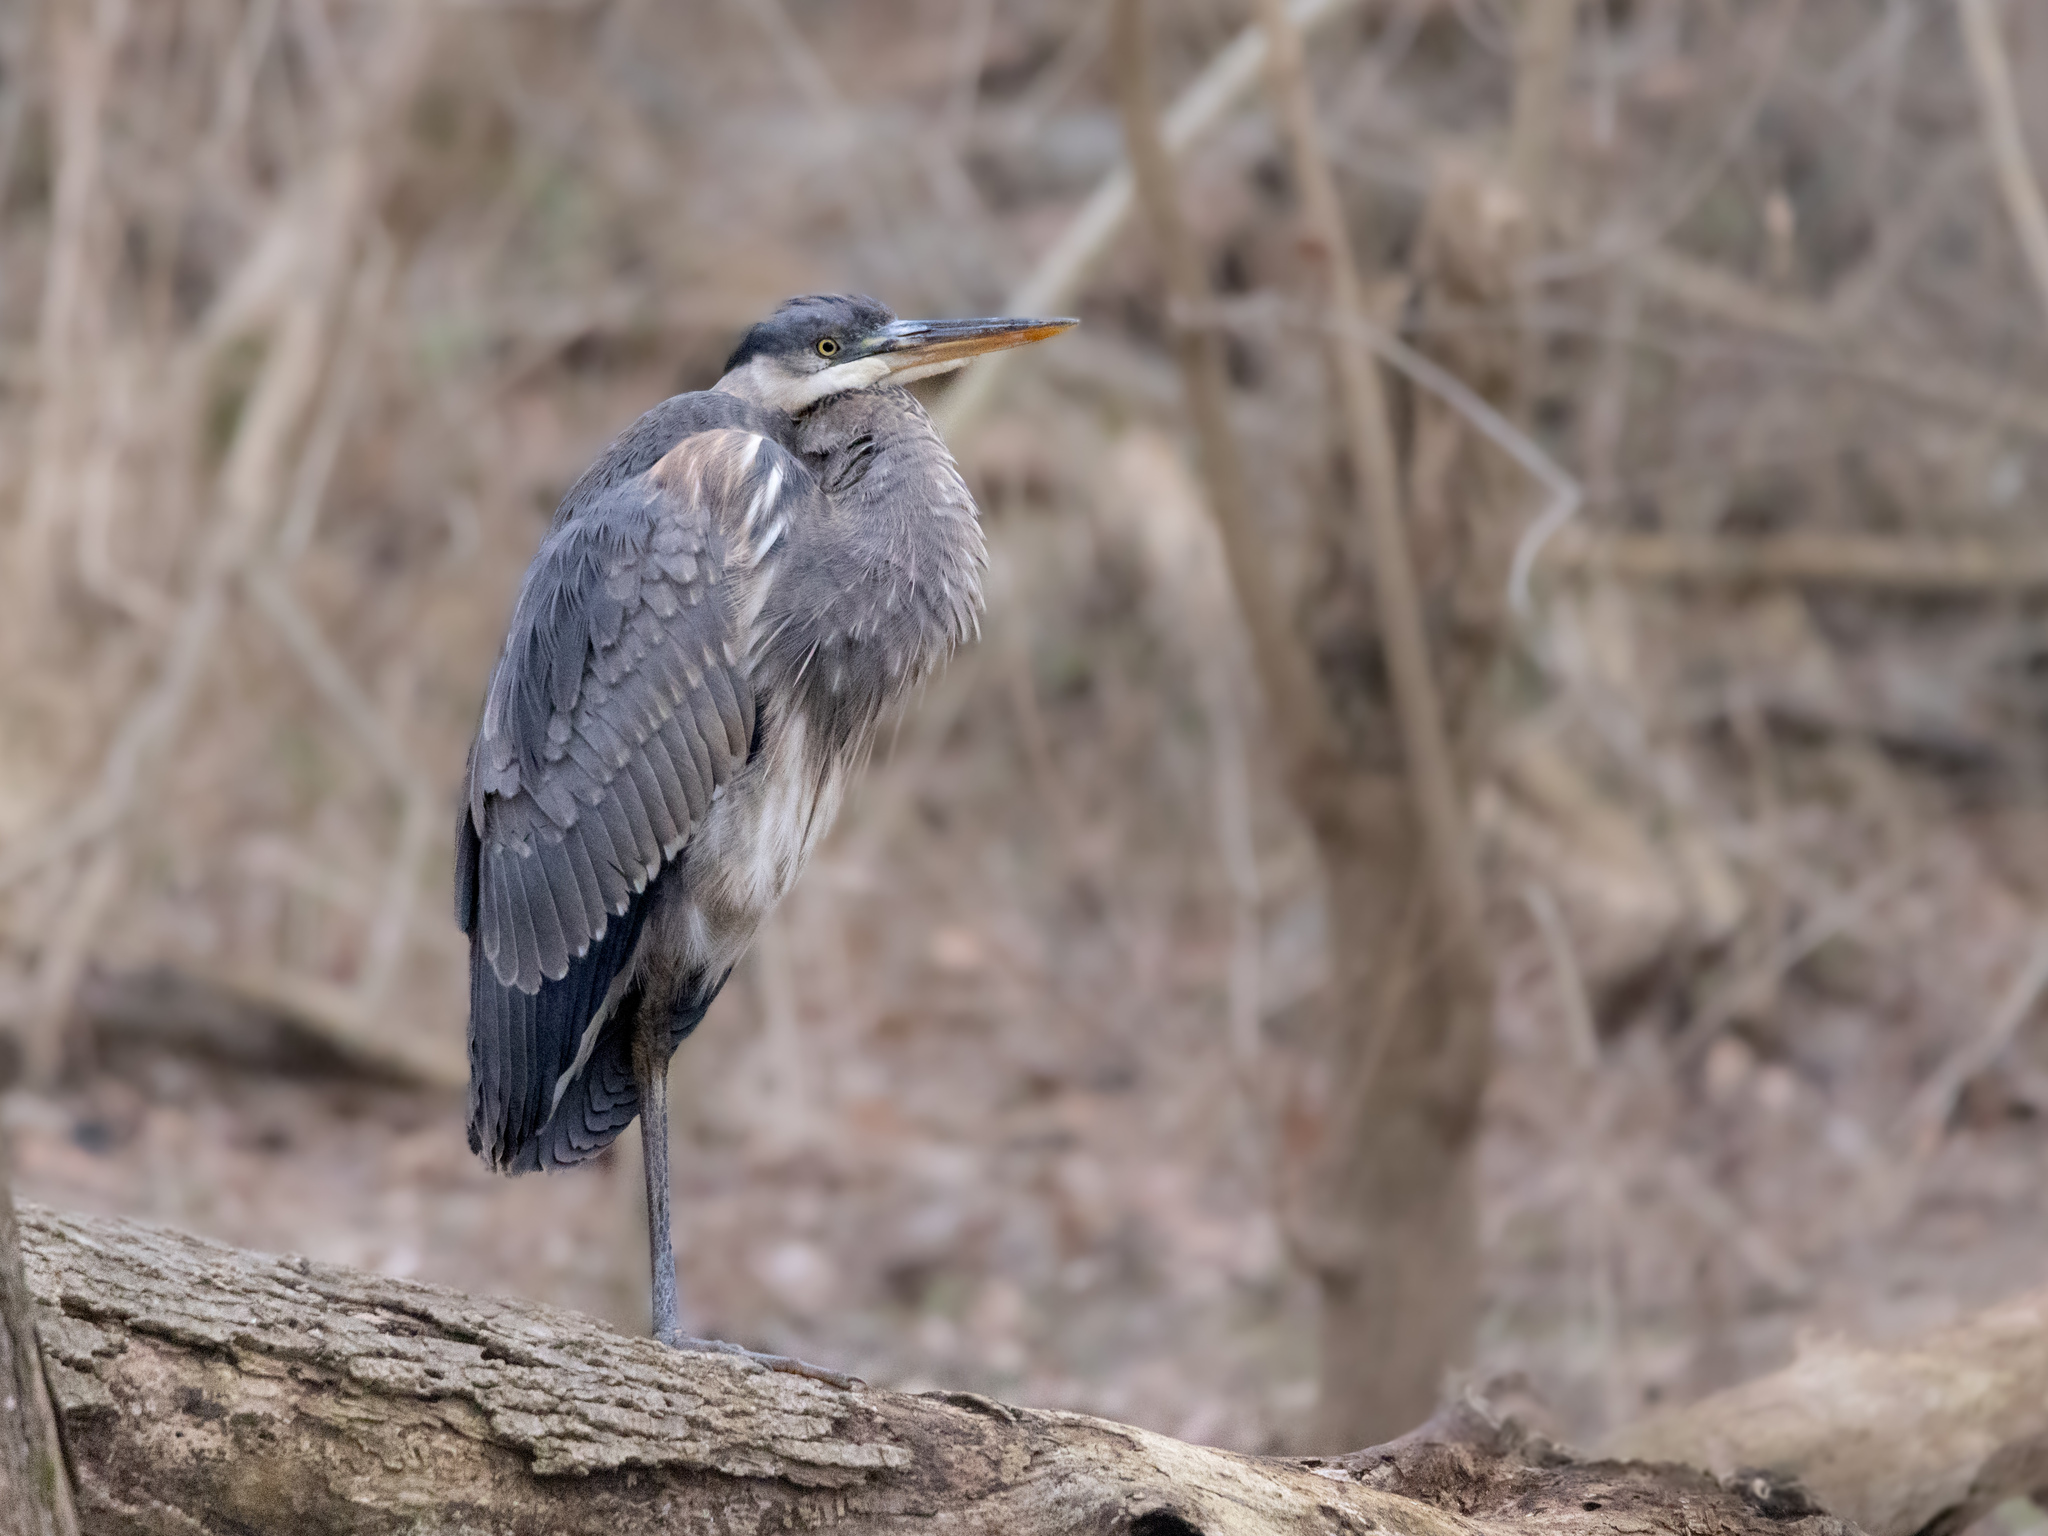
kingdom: Animalia
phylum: Chordata
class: Aves
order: Pelecaniformes
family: Ardeidae
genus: Ardea
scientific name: Ardea herodias
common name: Great blue heron
